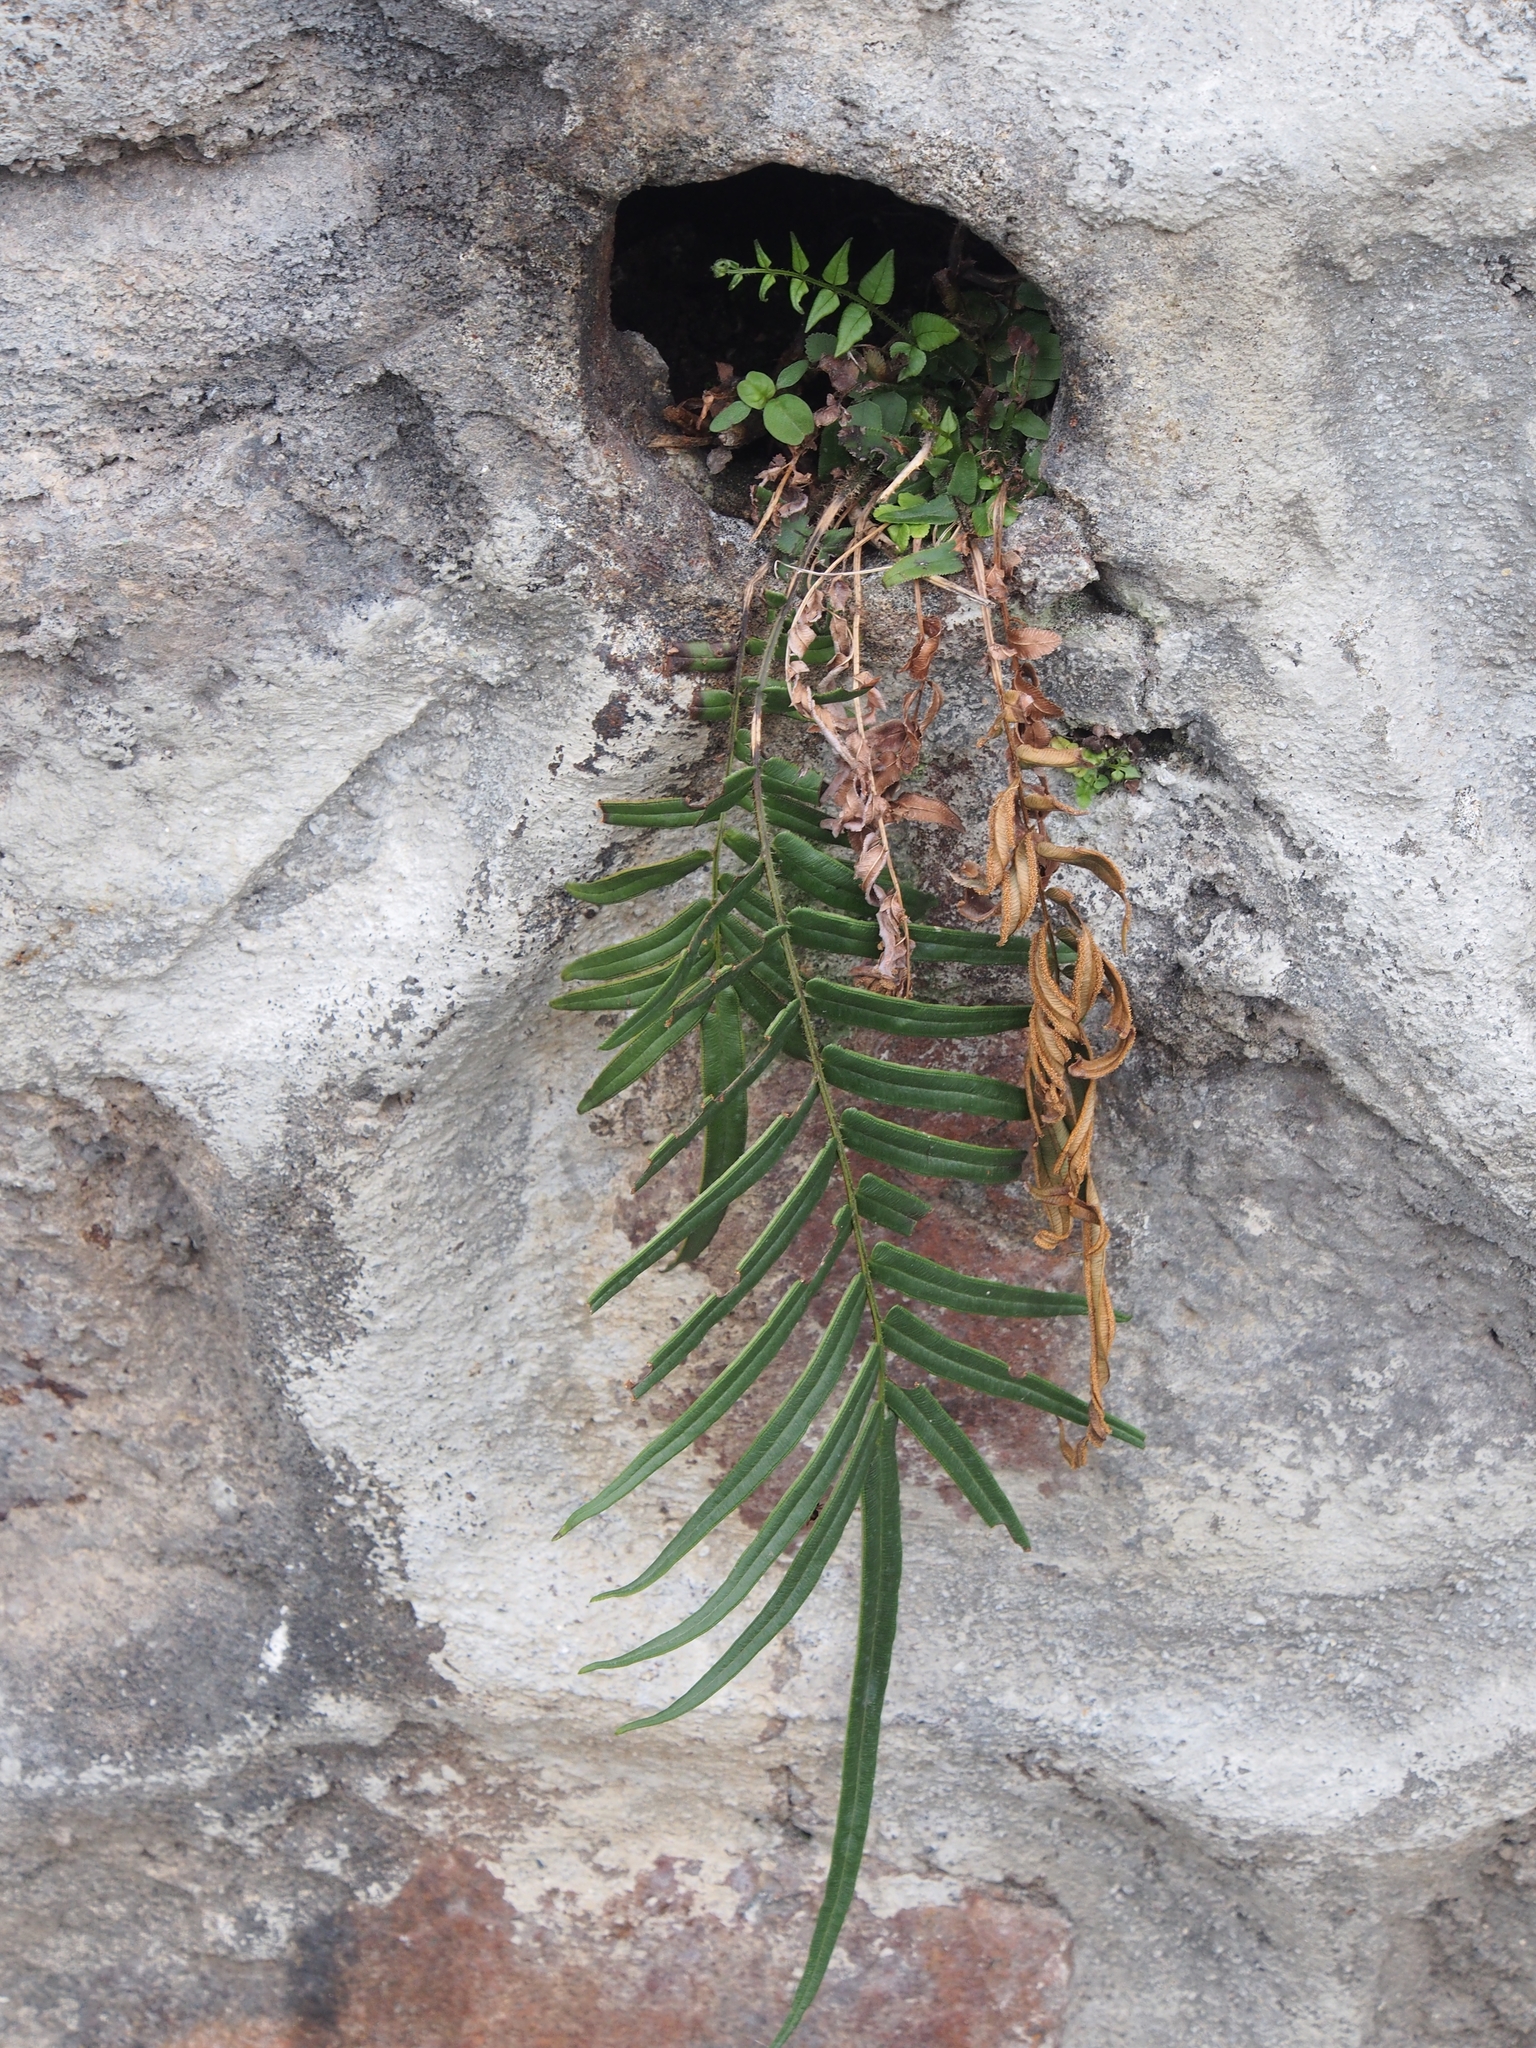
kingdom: Plantae
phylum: Tracheophyta
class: Polypodiopsida
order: Polypodiales
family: Pteridaceae
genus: Pteris
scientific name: Pteris vittata
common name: Ladder brake
